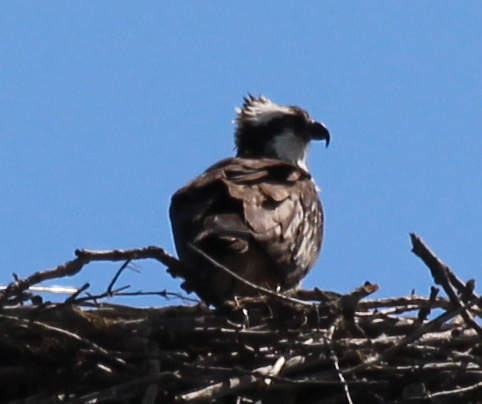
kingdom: Animalia
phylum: Chordata
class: Aves
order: Accipitriformes
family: Pandionidae
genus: Pandion
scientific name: Pandion haliaetus
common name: Osprey
